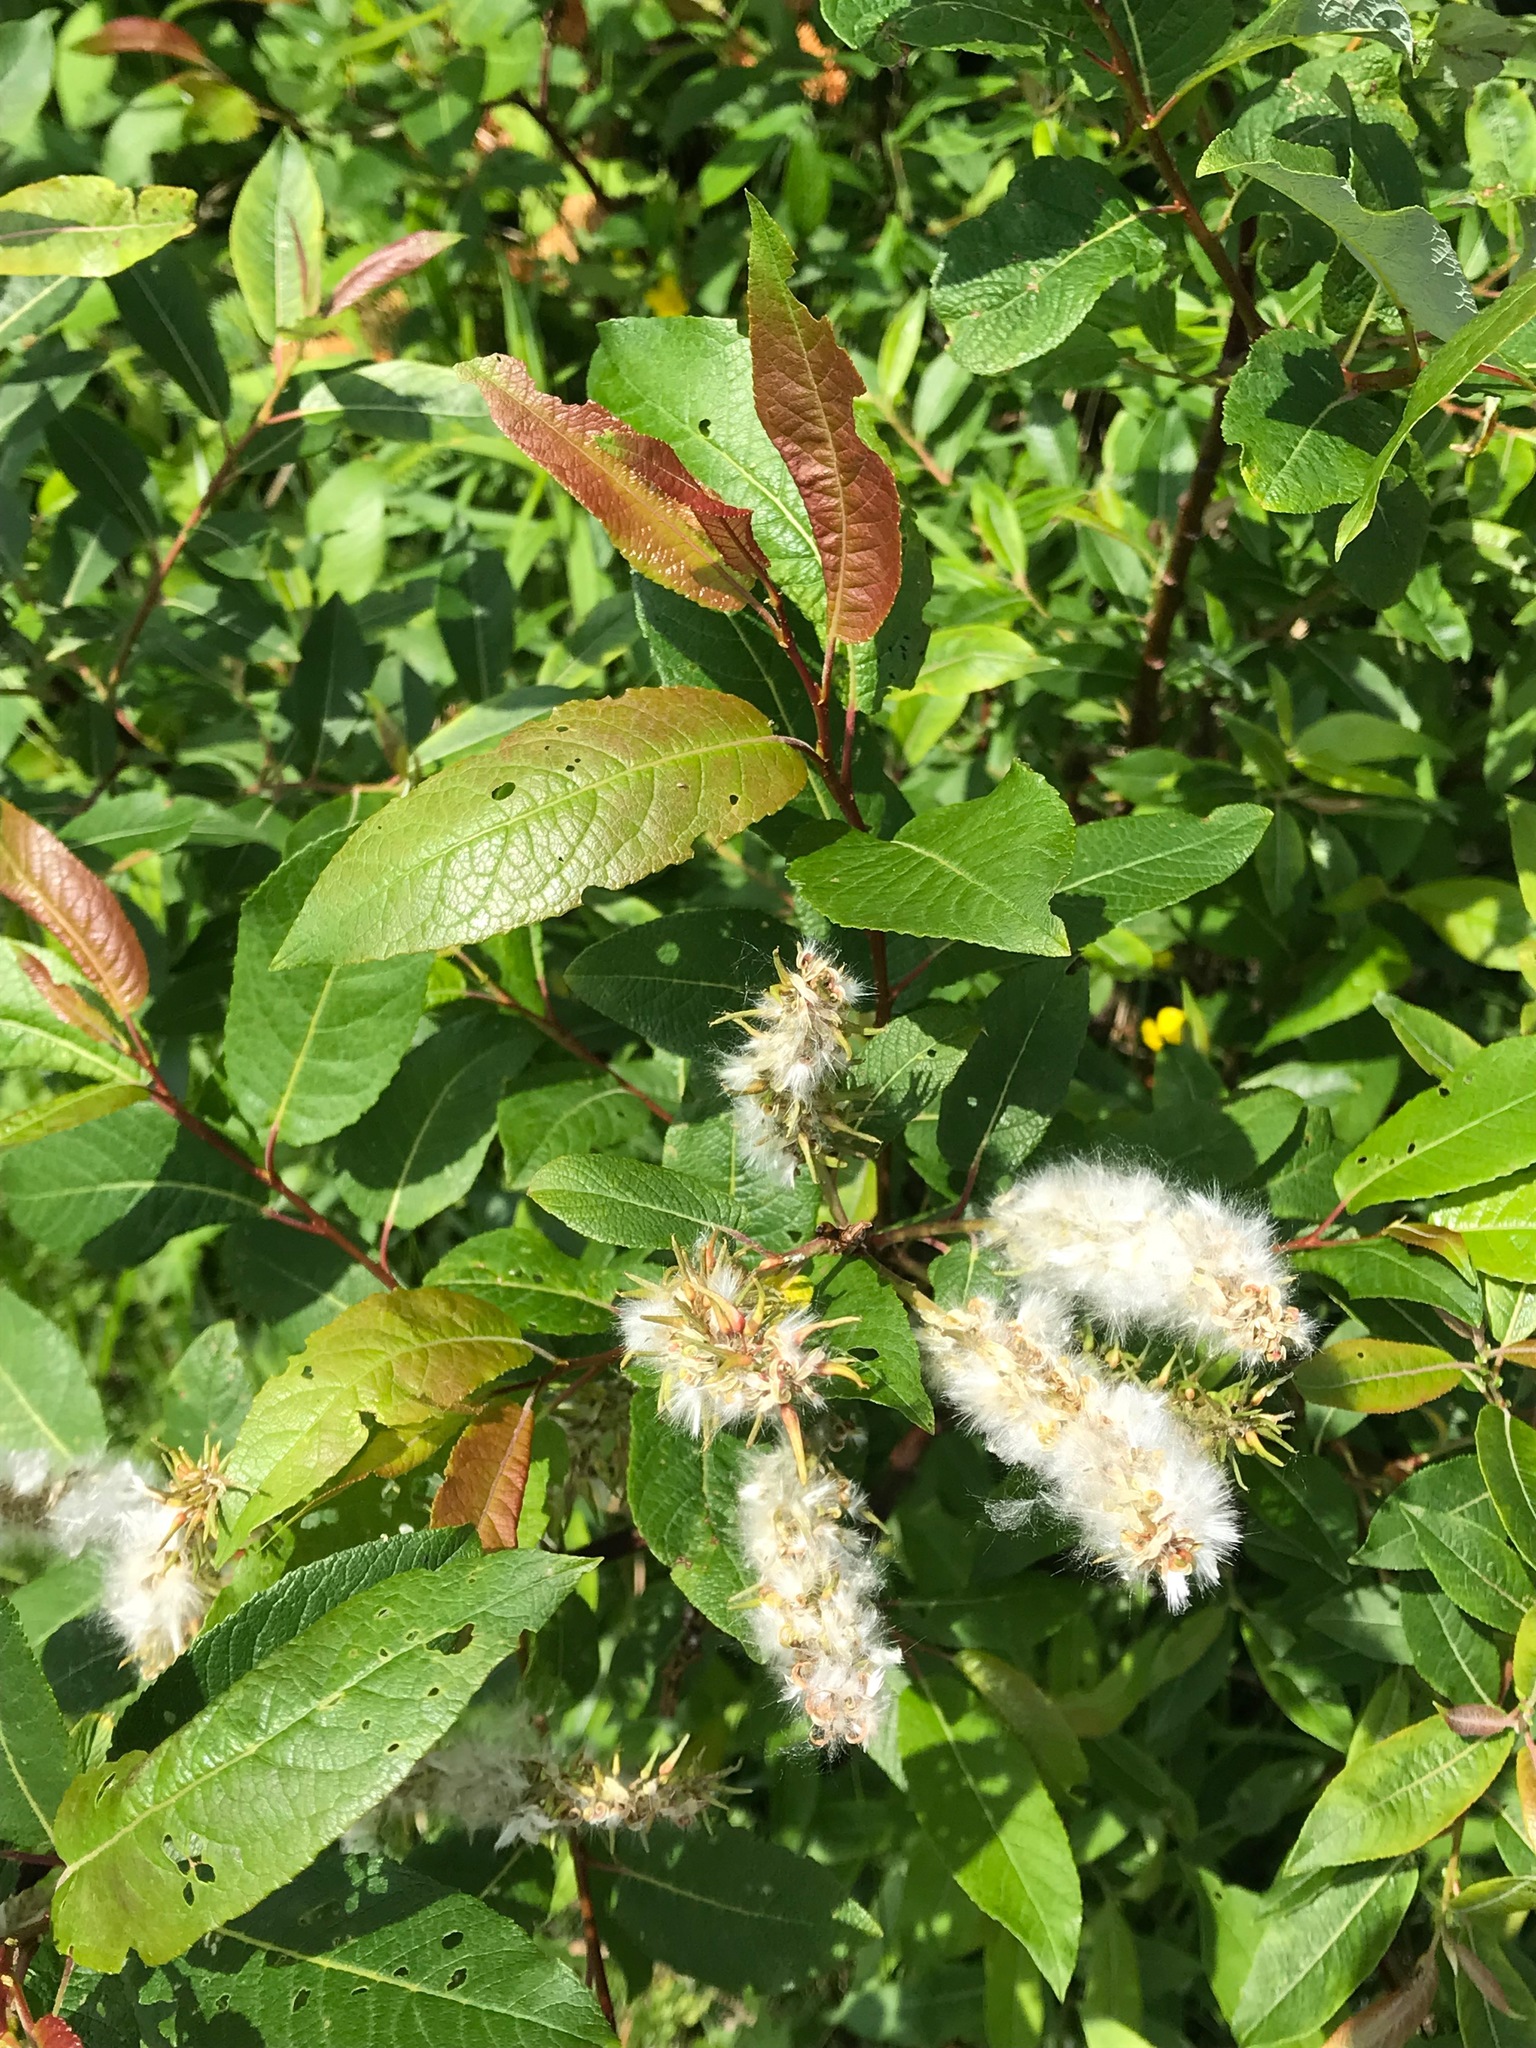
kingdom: Plantae
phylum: Tracheophyta
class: Magnoliopsida
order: Malpighiales
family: Salicaceae
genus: Salix
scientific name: Salix bebbiana
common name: Bebb's willow
